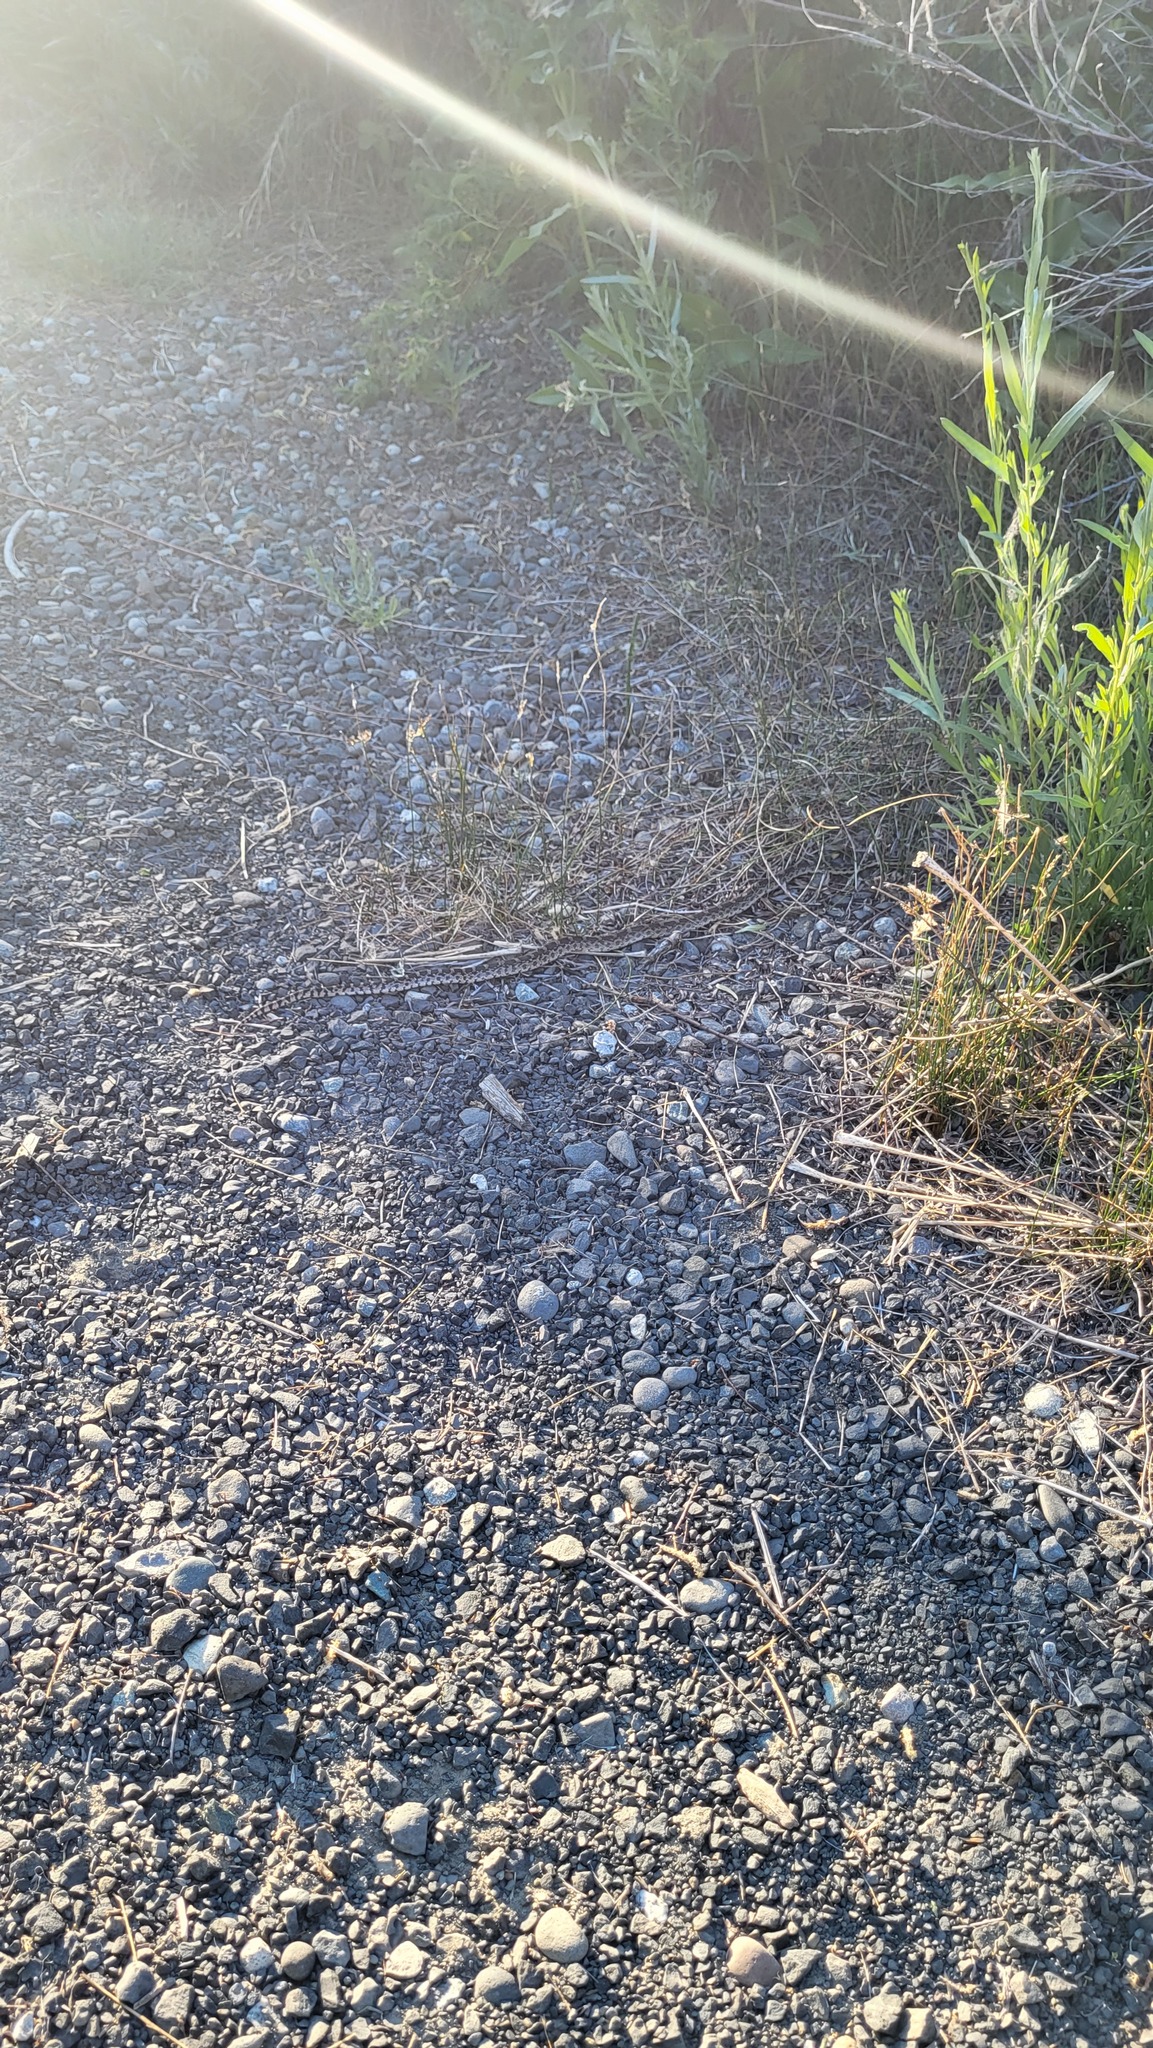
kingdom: Animalia
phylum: Chordata
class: Squamata
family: Colubridae
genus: Pituophis
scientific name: Pituophis catenifer
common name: Gopher snake
